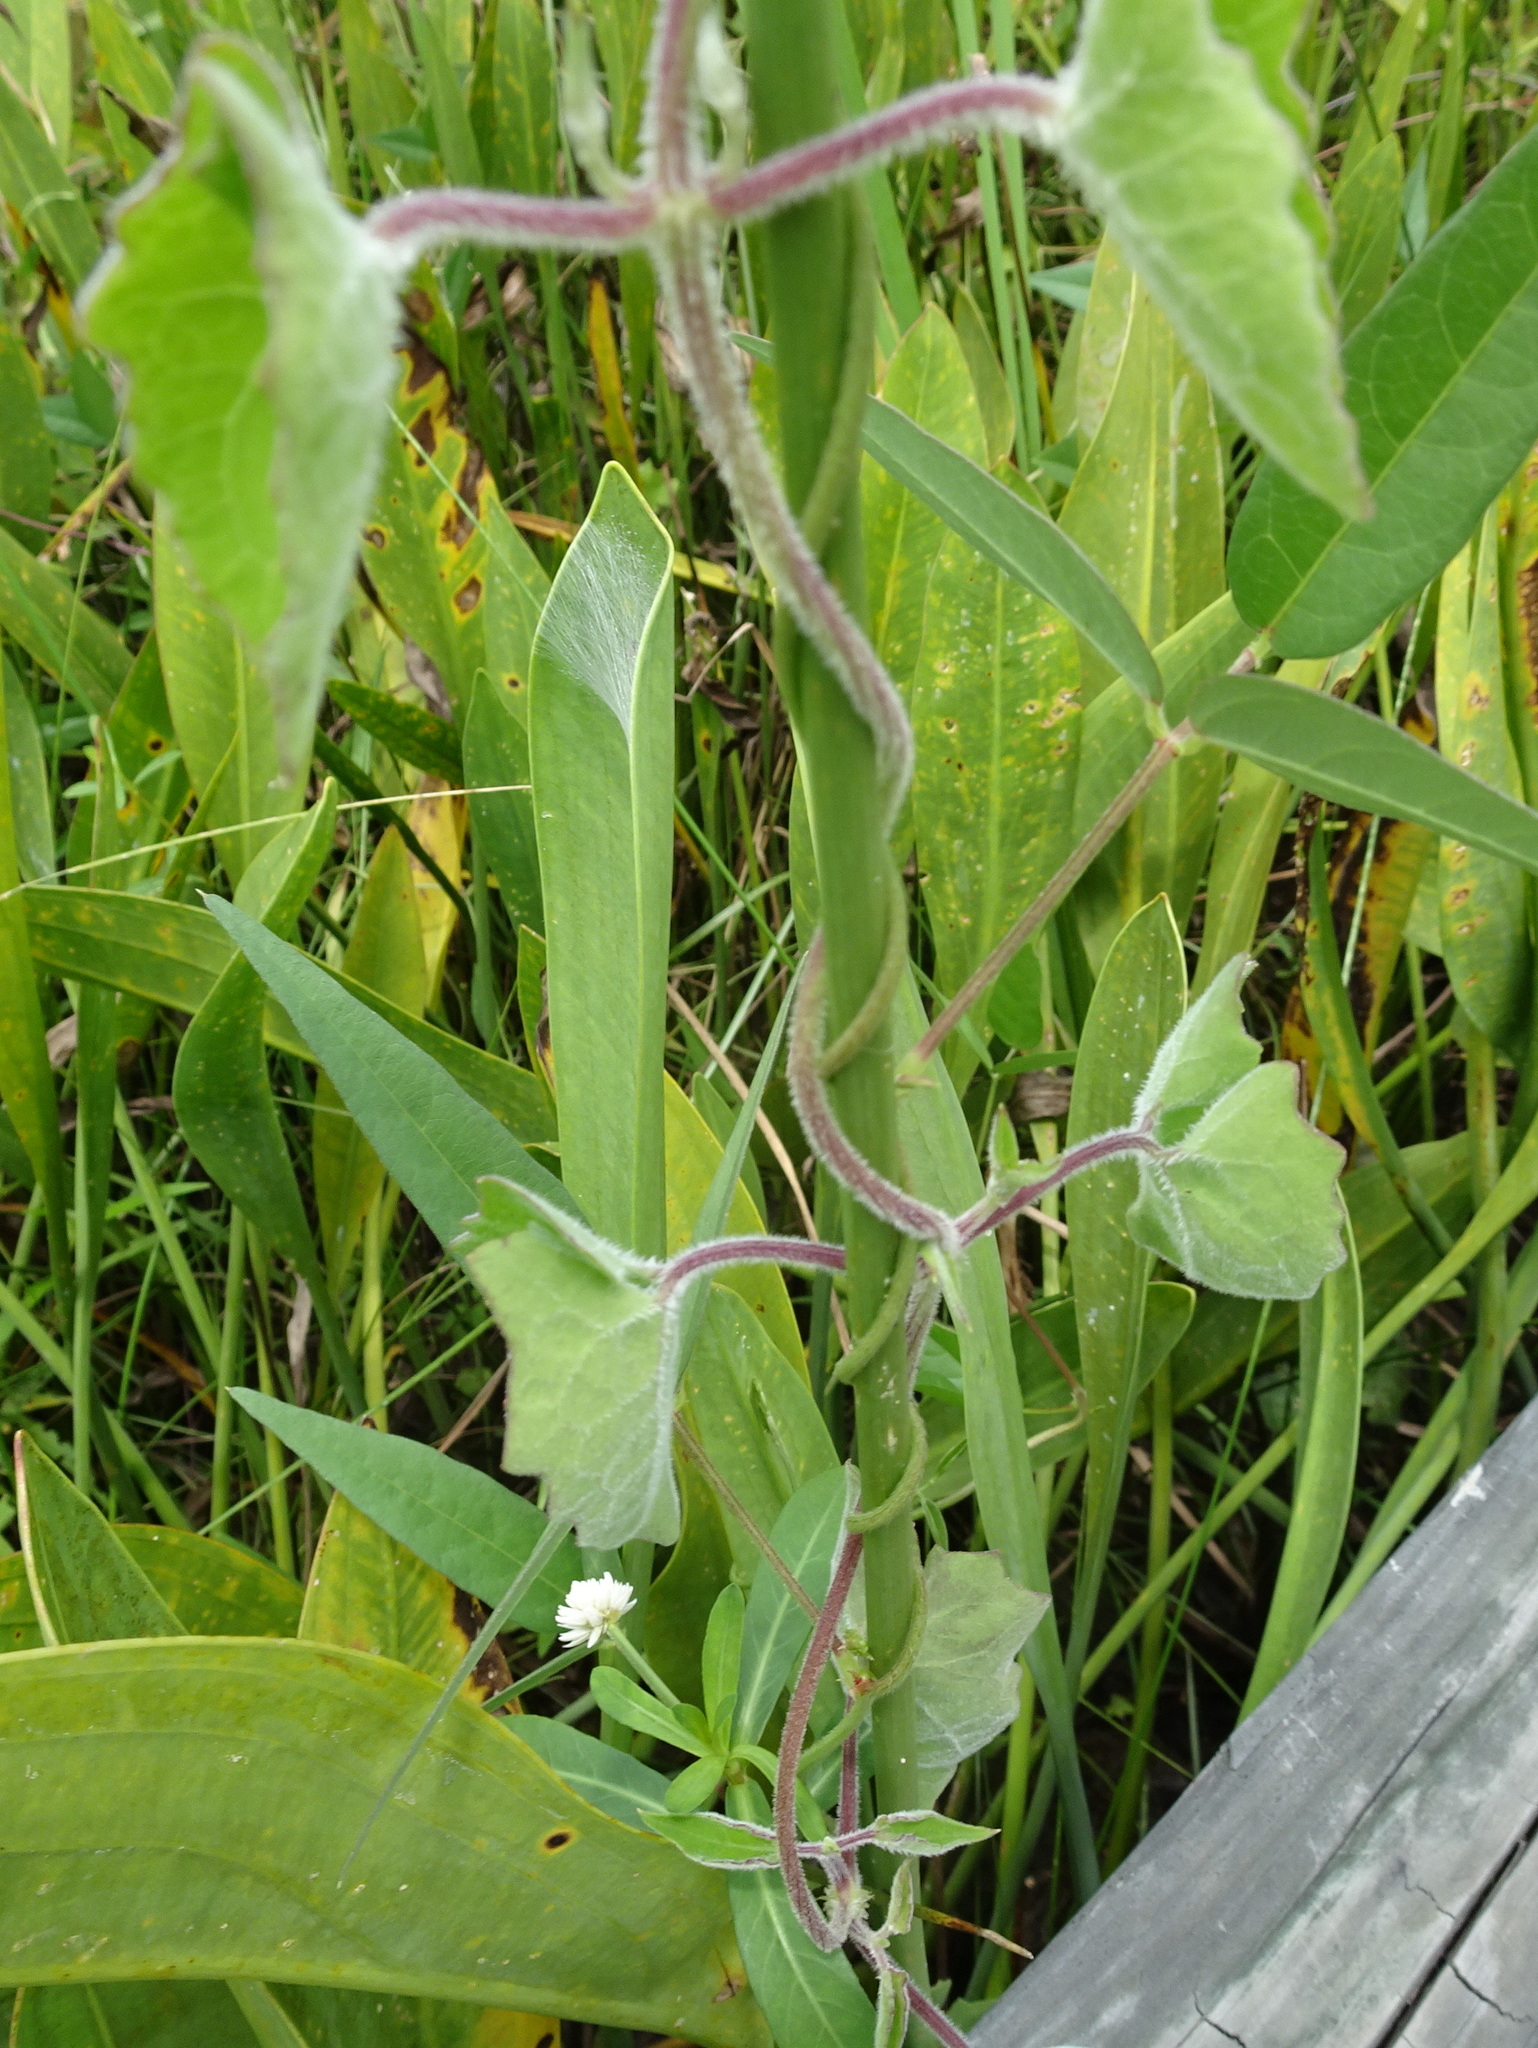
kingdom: Plantae
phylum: Tracheophyta
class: Magnoliopsida
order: Asterales
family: Asteraceae
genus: Mikania
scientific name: Mikania scandens
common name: Climbing hempvine
